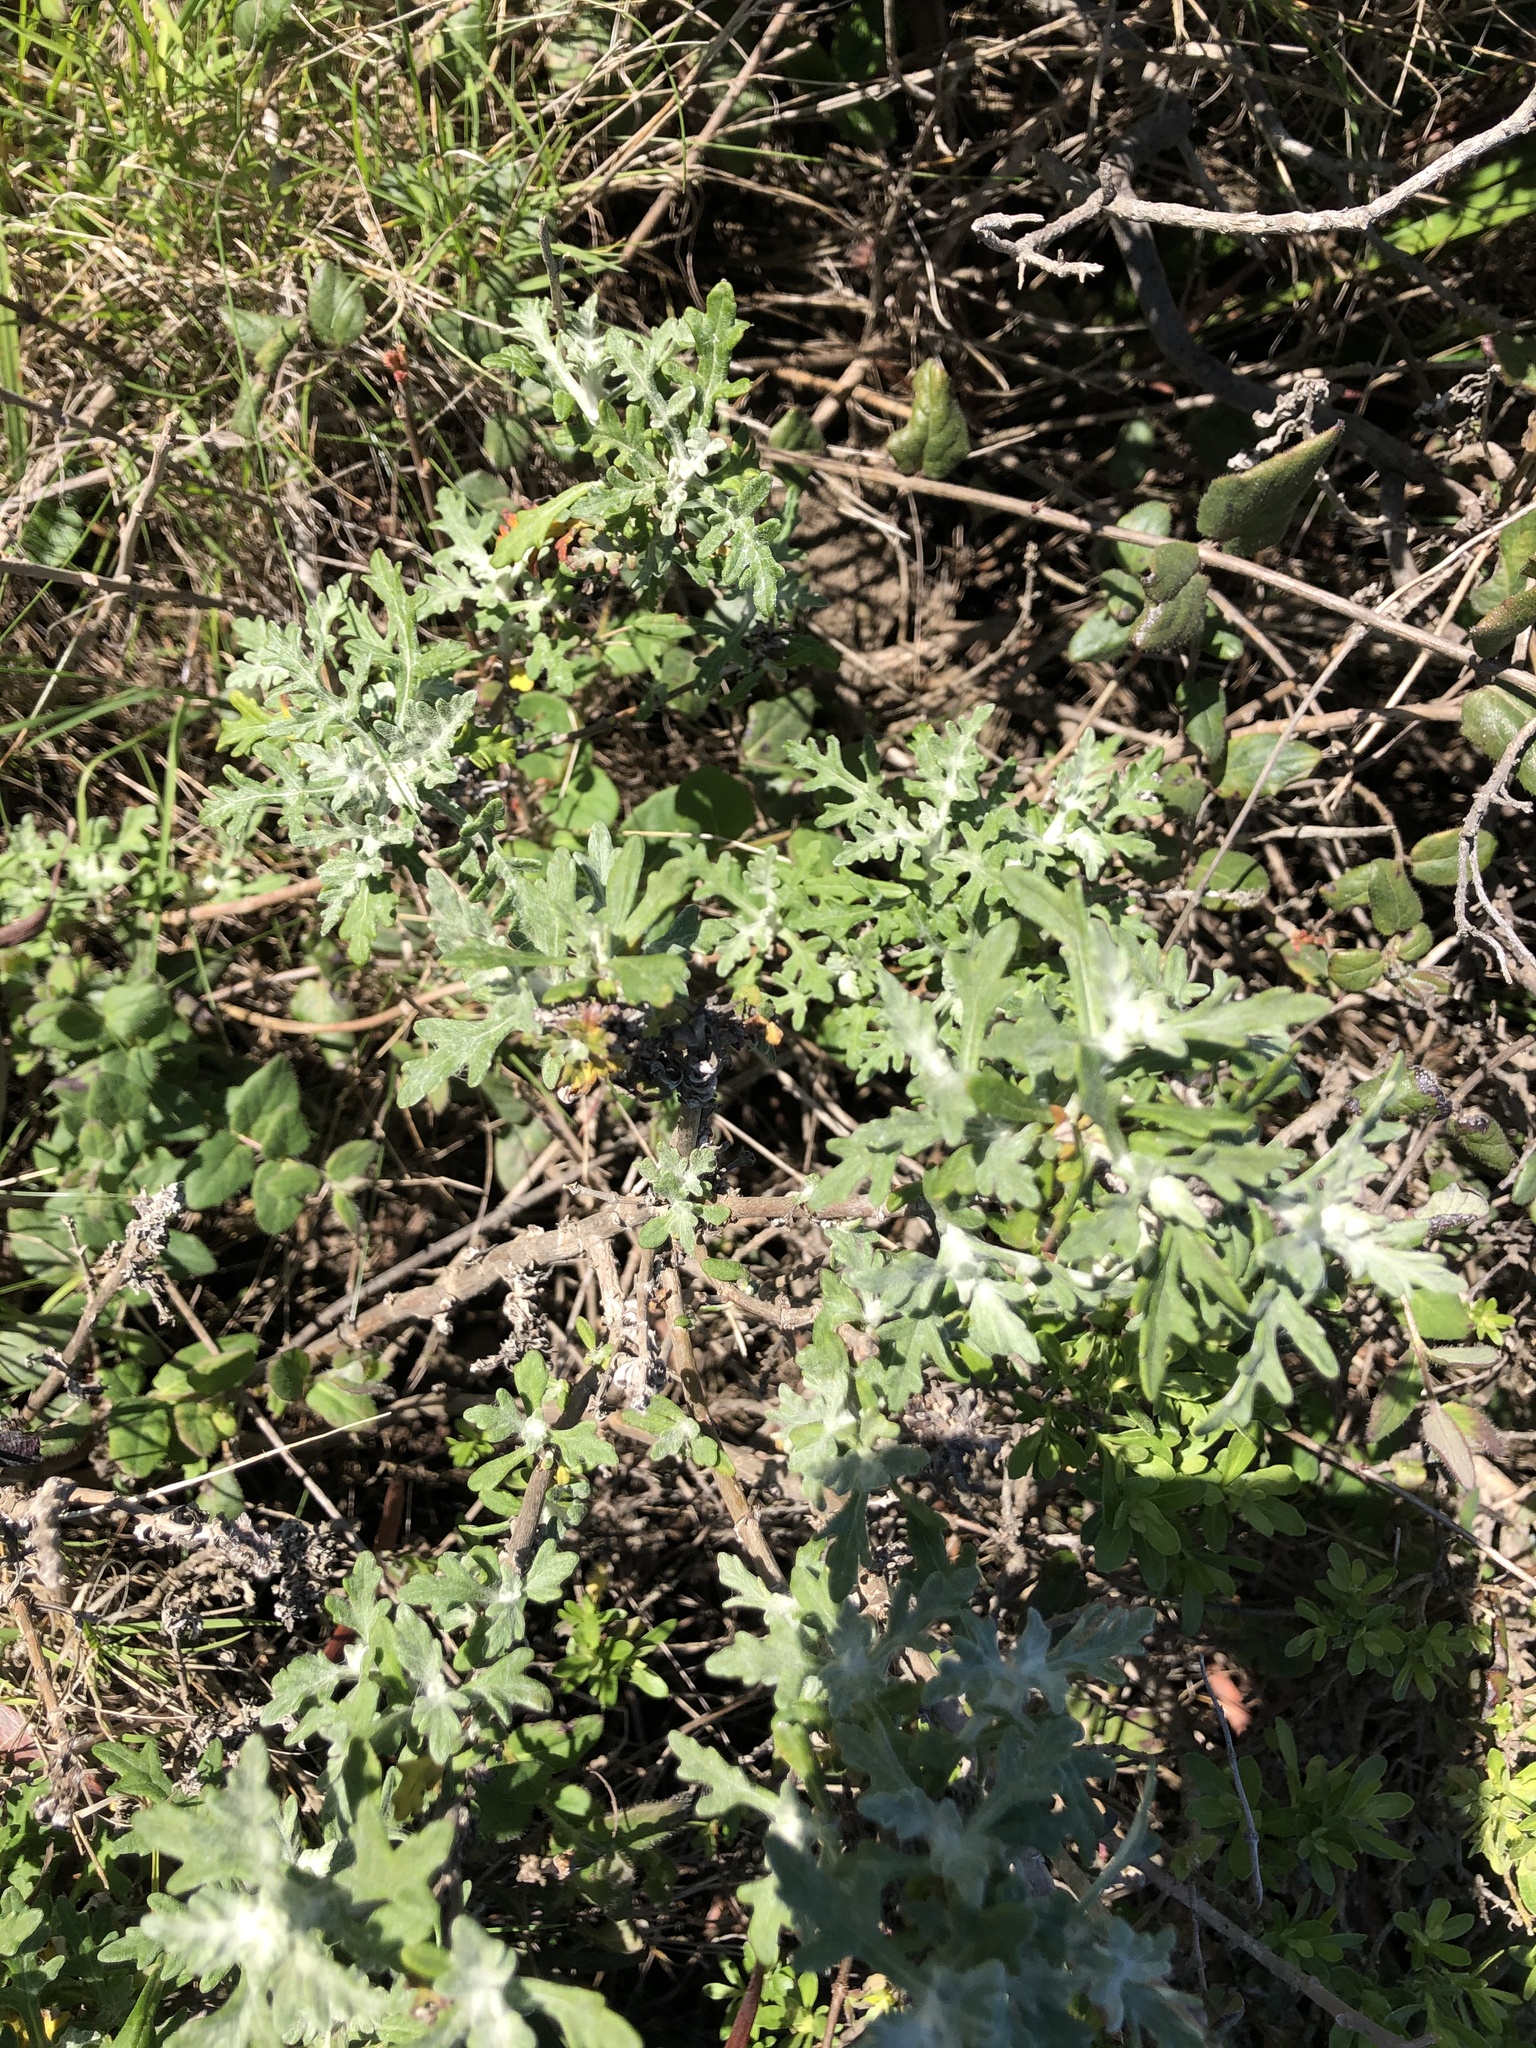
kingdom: Plantae
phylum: Tracheophyta
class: Magnoliopsida
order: Asterales
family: Asteraceae
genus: Eriophyllum
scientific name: Eriophyllum staechadifolium
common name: Lizardtail
